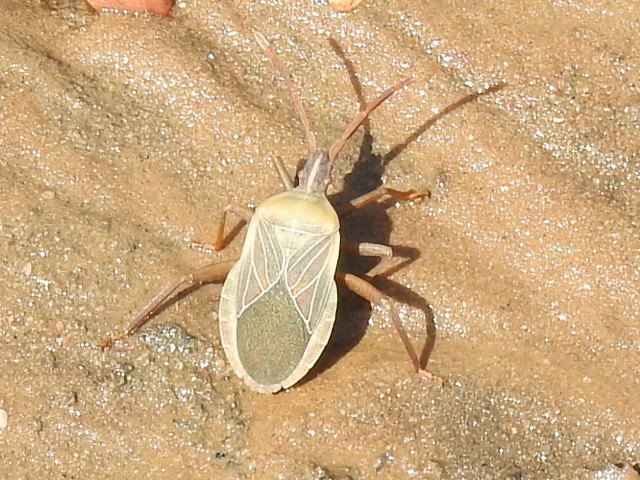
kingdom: Animalia
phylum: Arthropoda
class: Insecta
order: Hemiptera
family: Coreidae
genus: Chelinidea
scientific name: Chelinidea vittiger
